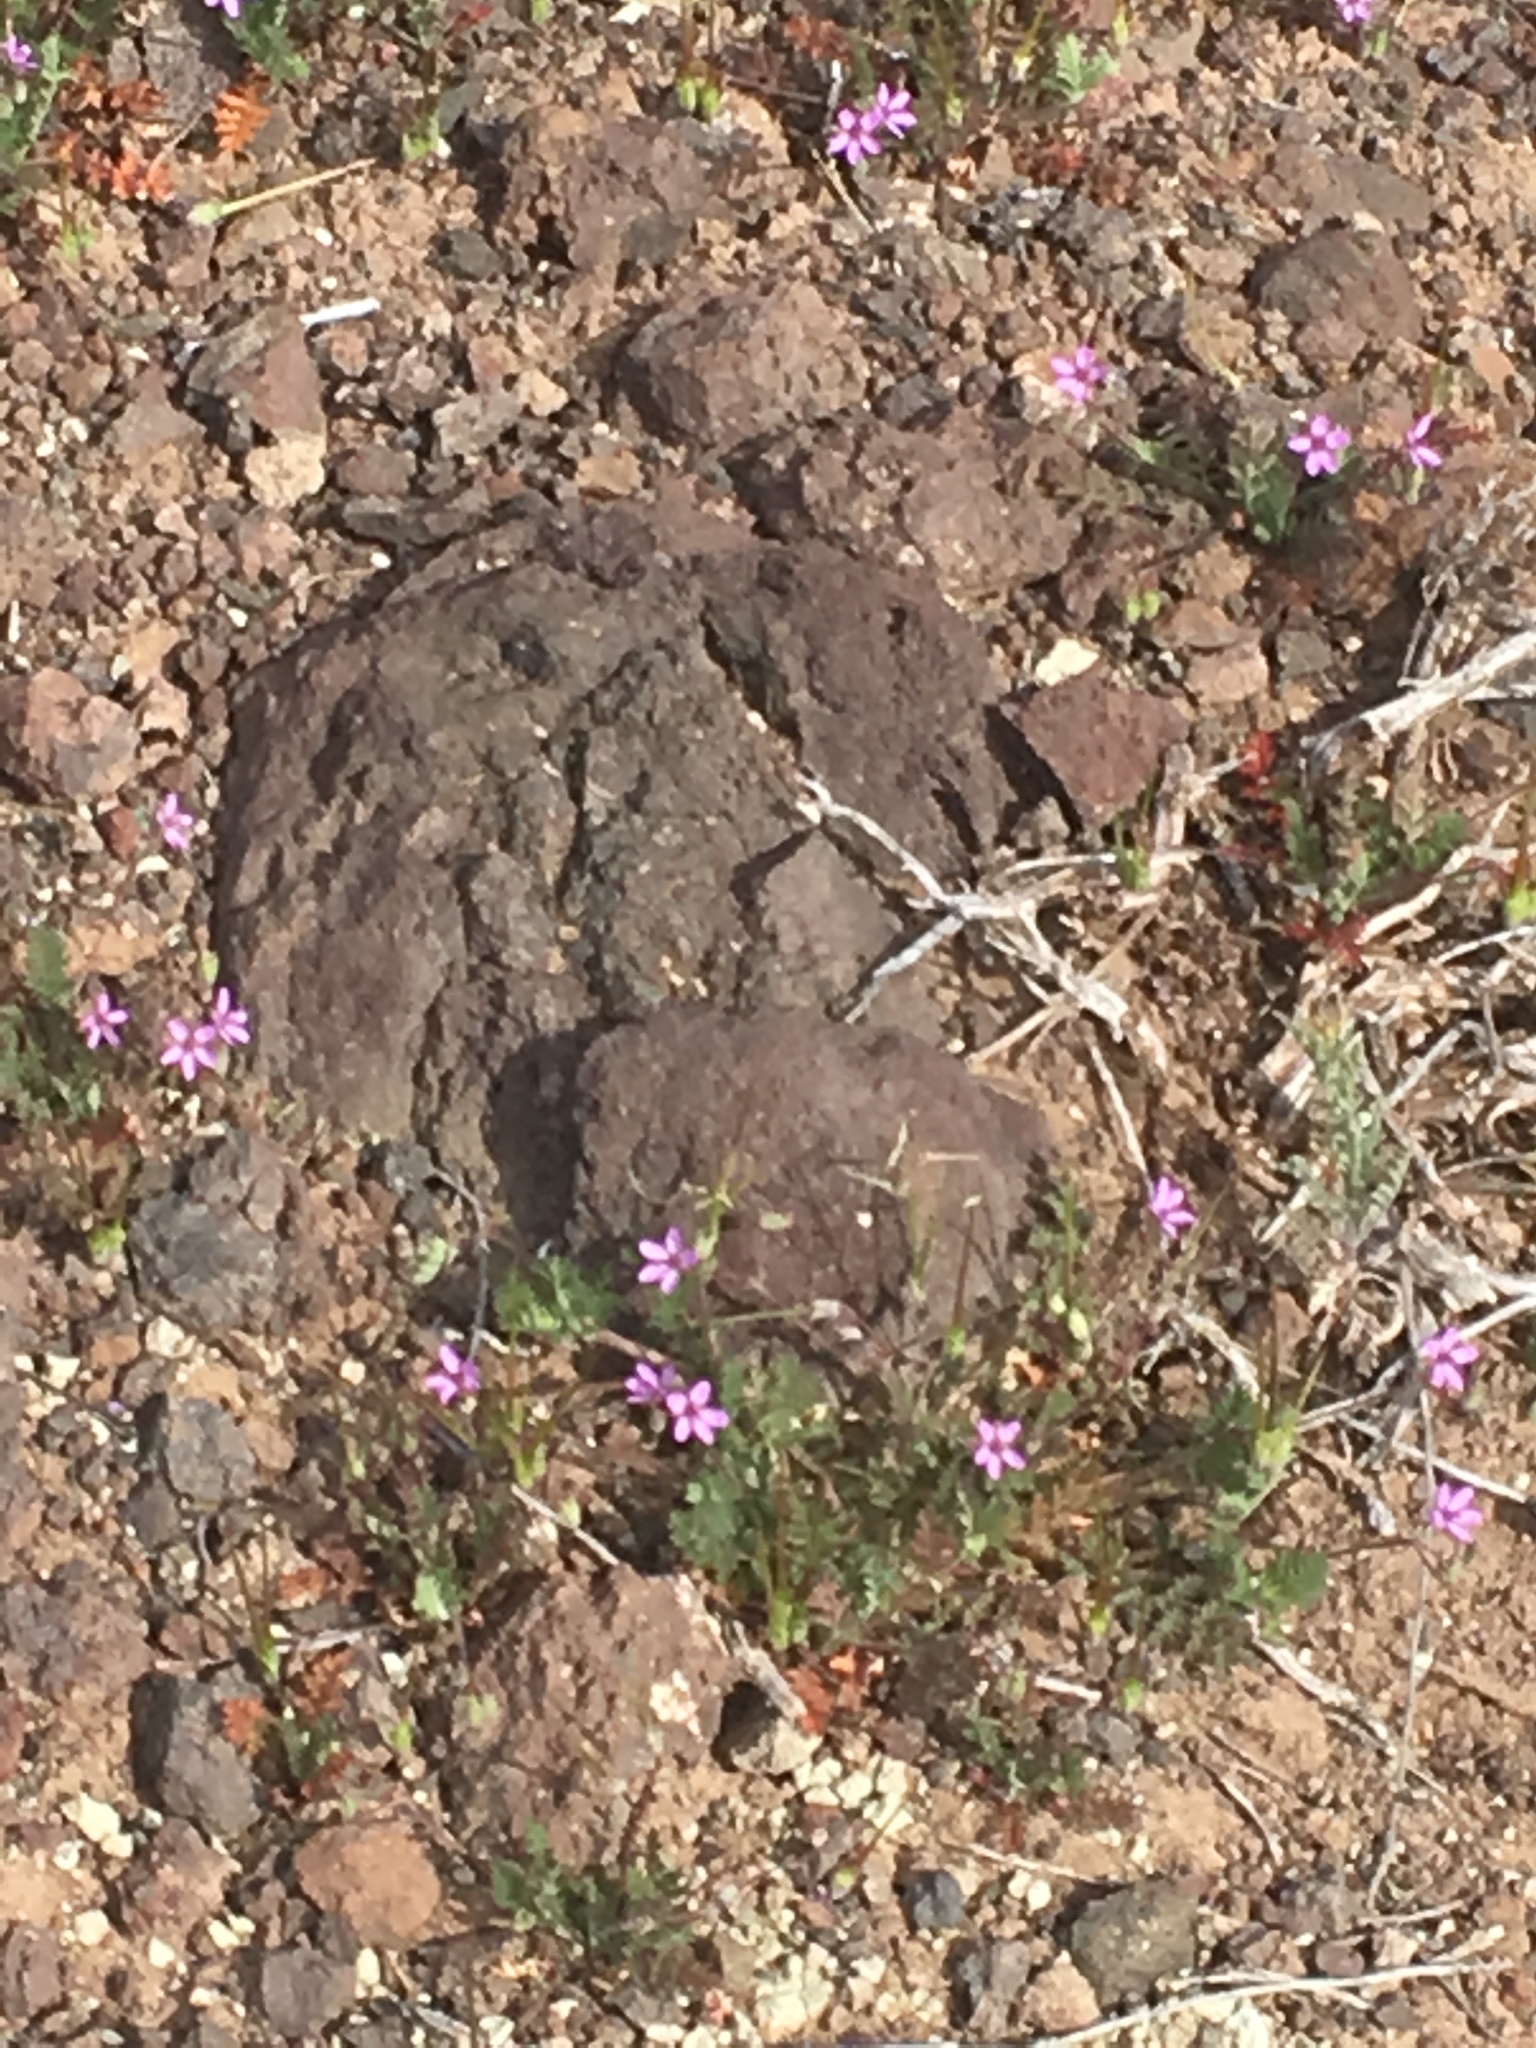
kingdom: Plantae
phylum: Tracheophyta
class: Magnoliopsida
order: Geraniales
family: Geraniaceae
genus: Erodium
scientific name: Erodium cicutarium
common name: Common stork's-bill
